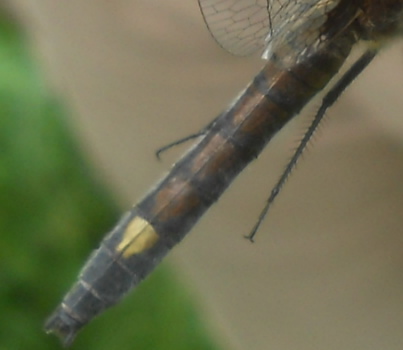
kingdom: Animalia
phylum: Arthropoda
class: Insecta
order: Odonata
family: Libellulidae
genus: Leucorrhinia
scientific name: Leucorrhinia pectoralis
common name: Yellow-spotted whiteface
